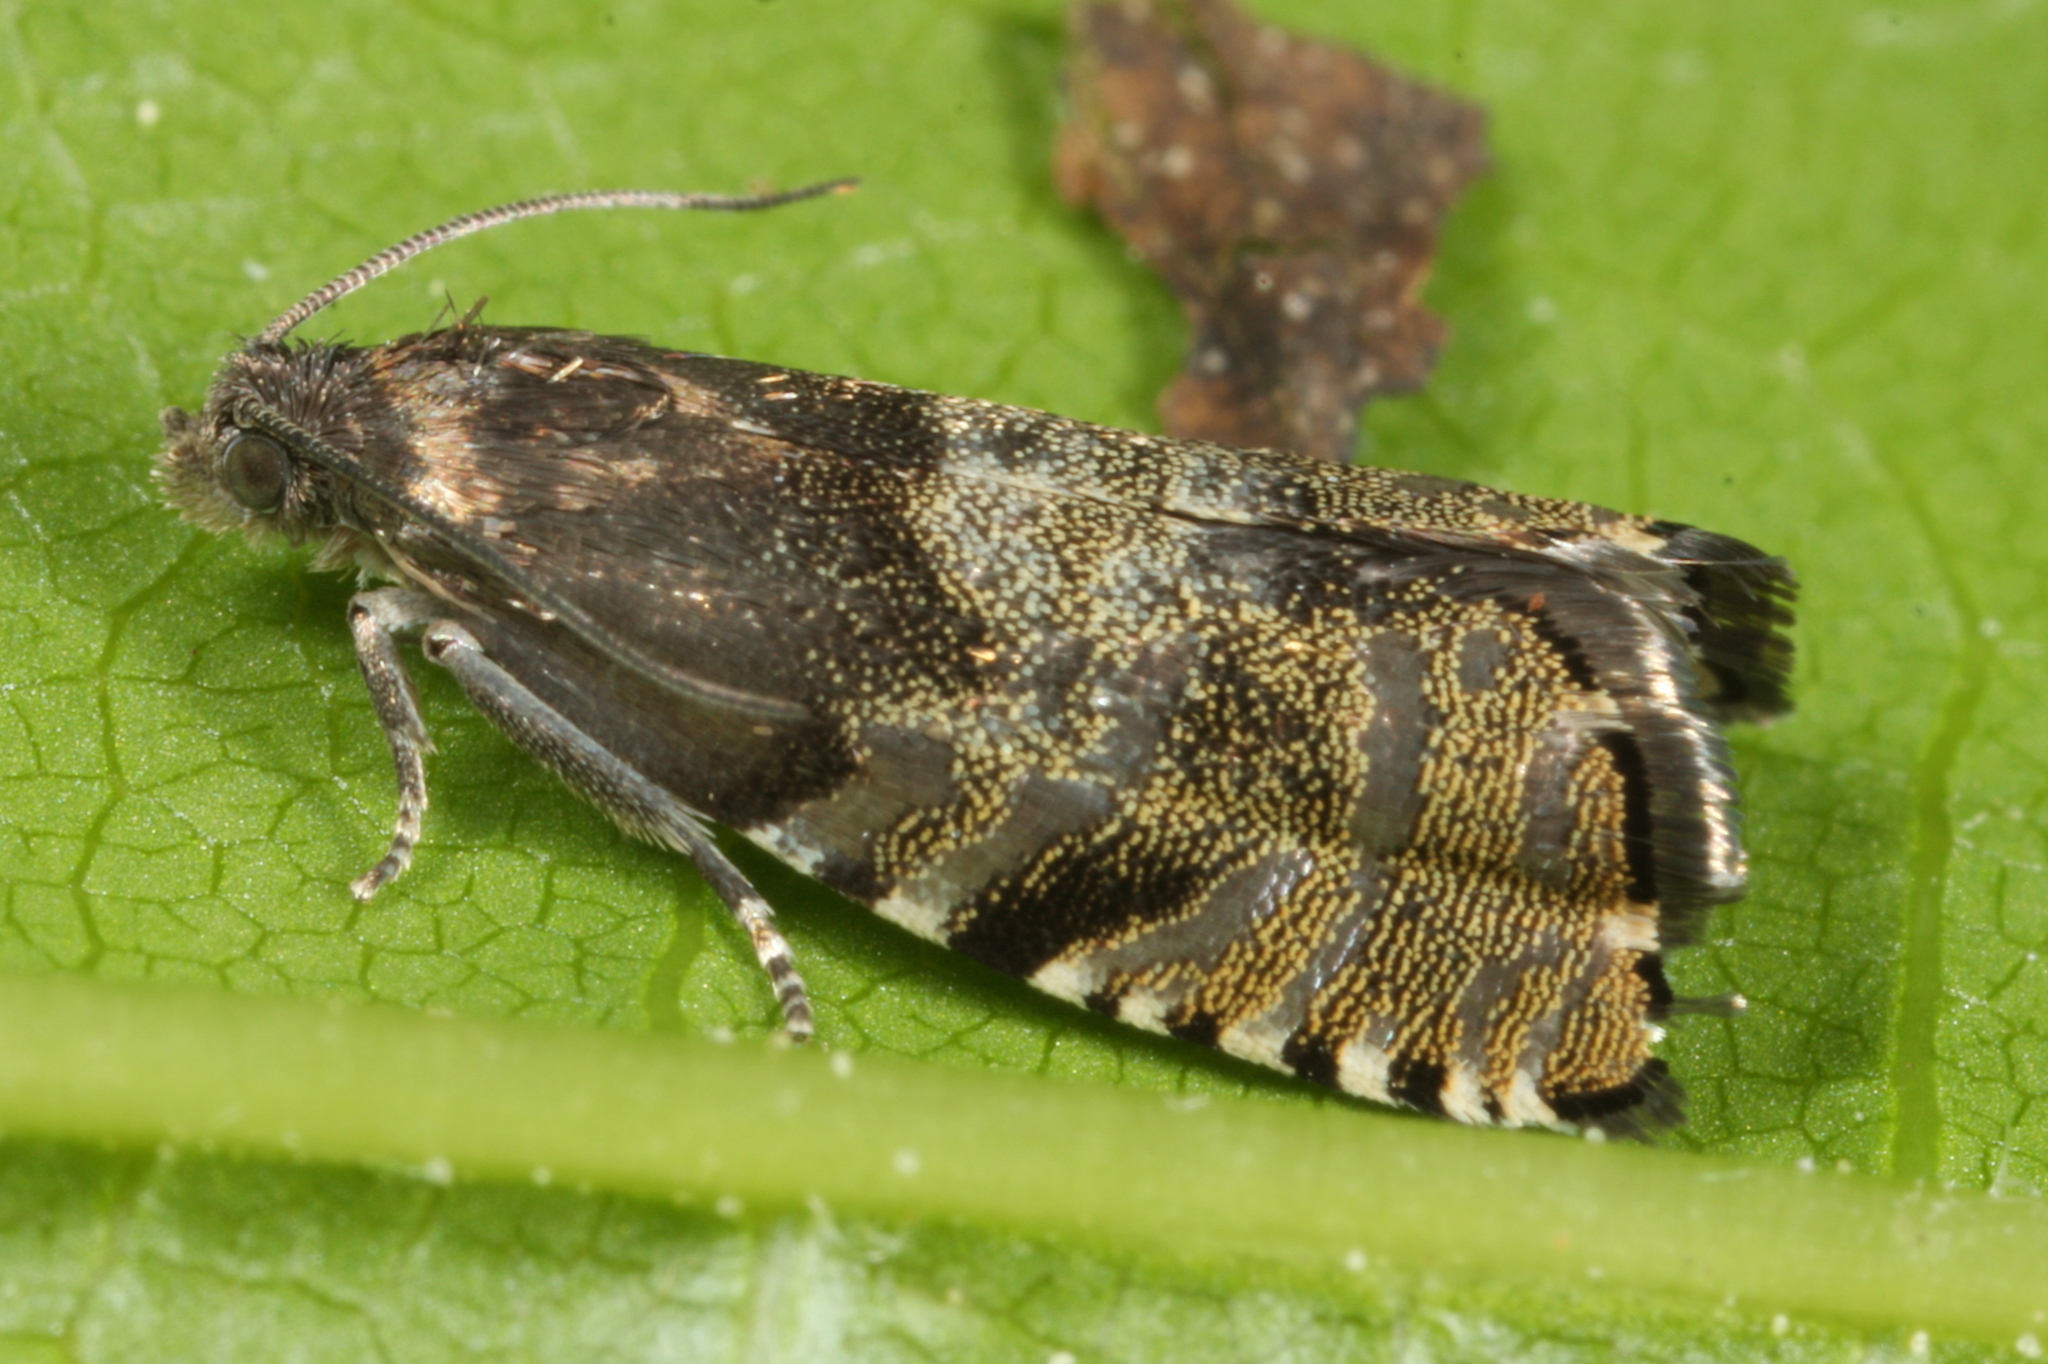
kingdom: Animalia
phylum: Arthropoda
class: Insecta
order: Lepidoptera
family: Tortricidae
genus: Cydia
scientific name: Cydia strobilella
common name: Spruce seed moth
